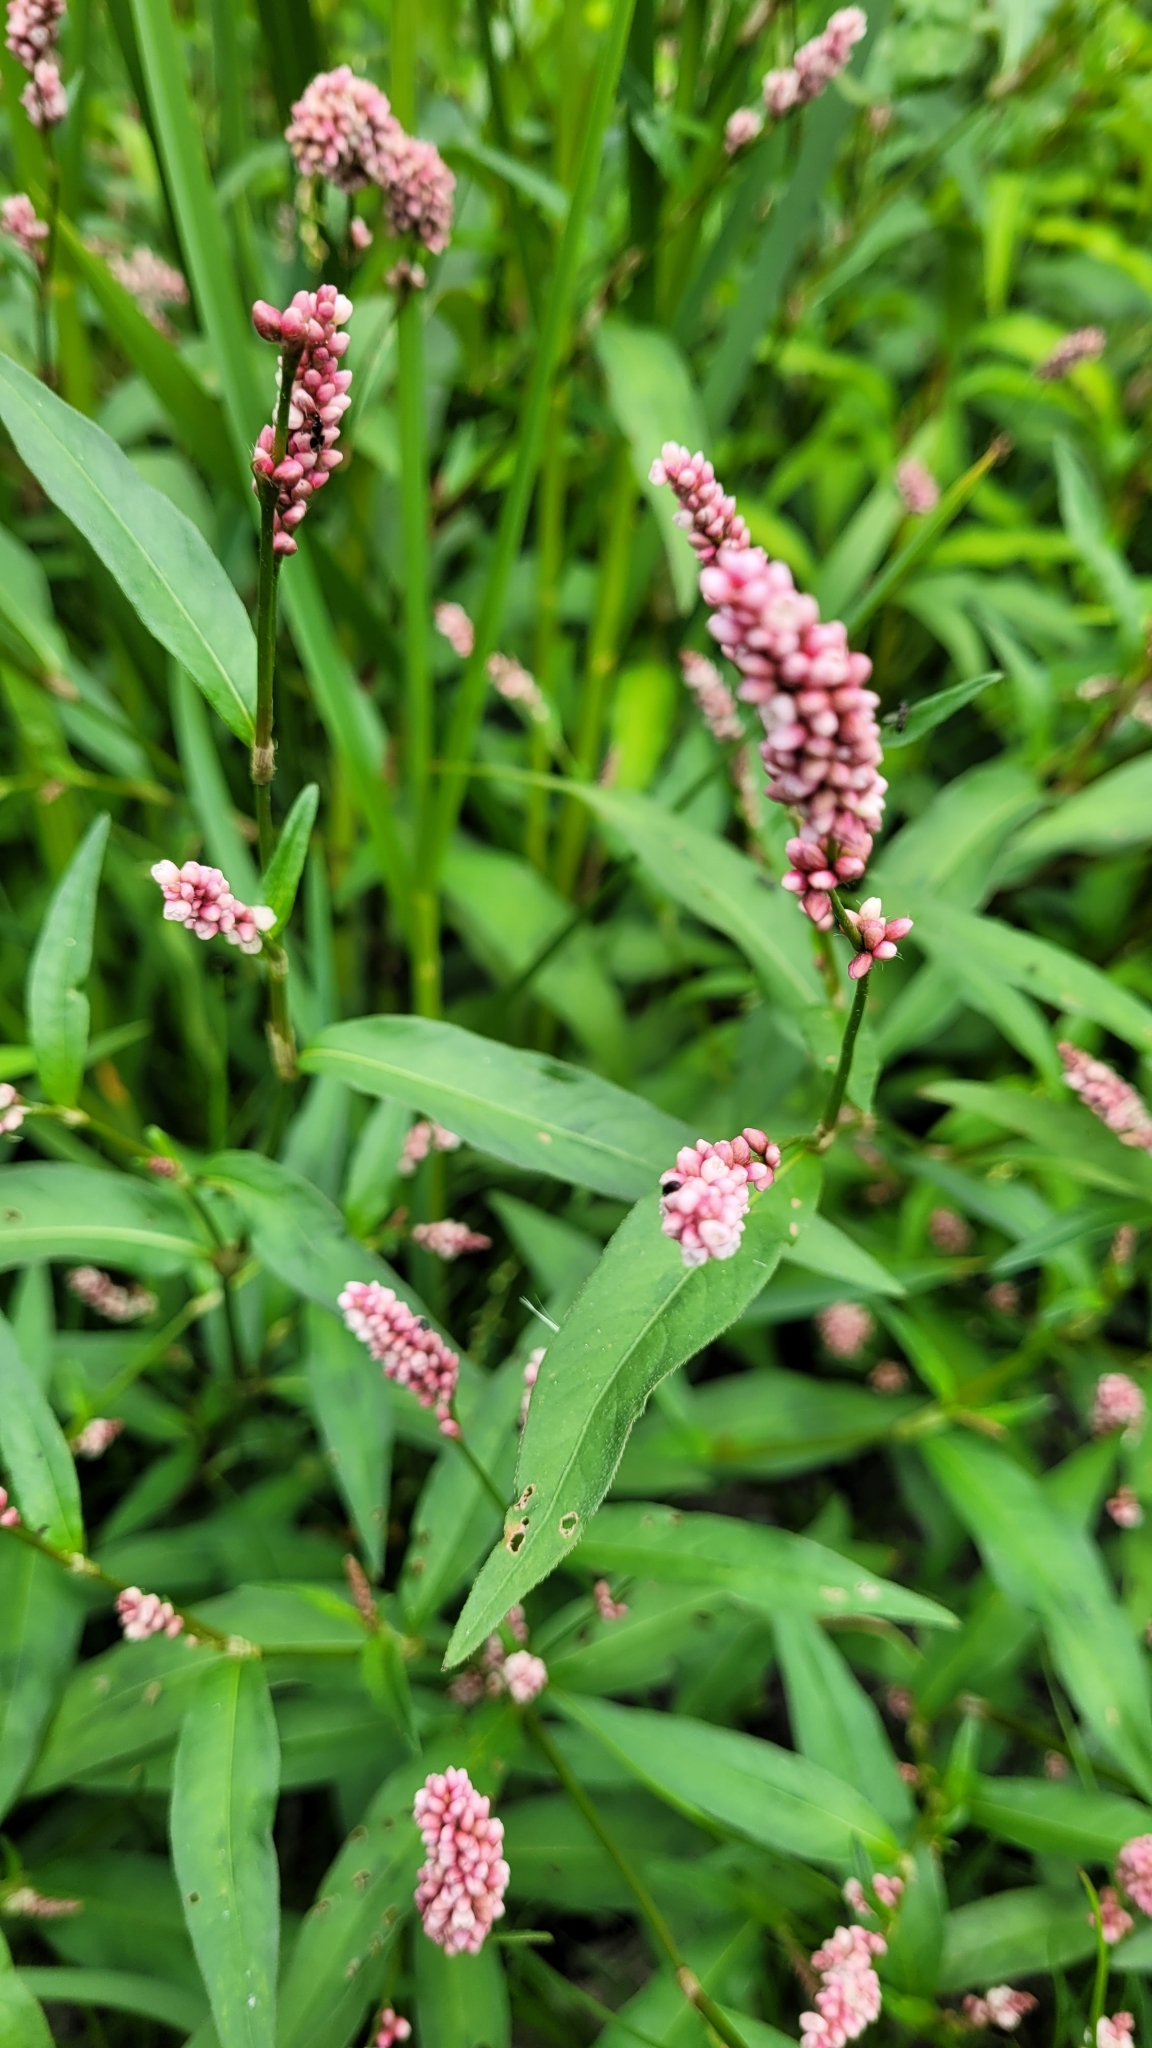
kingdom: Plantae
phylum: Tracheophyta
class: Magnoliopsida
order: Caryophyllales
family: Polygonaceae
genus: Persicaria
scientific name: Persicaria maculosa
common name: Redshank
